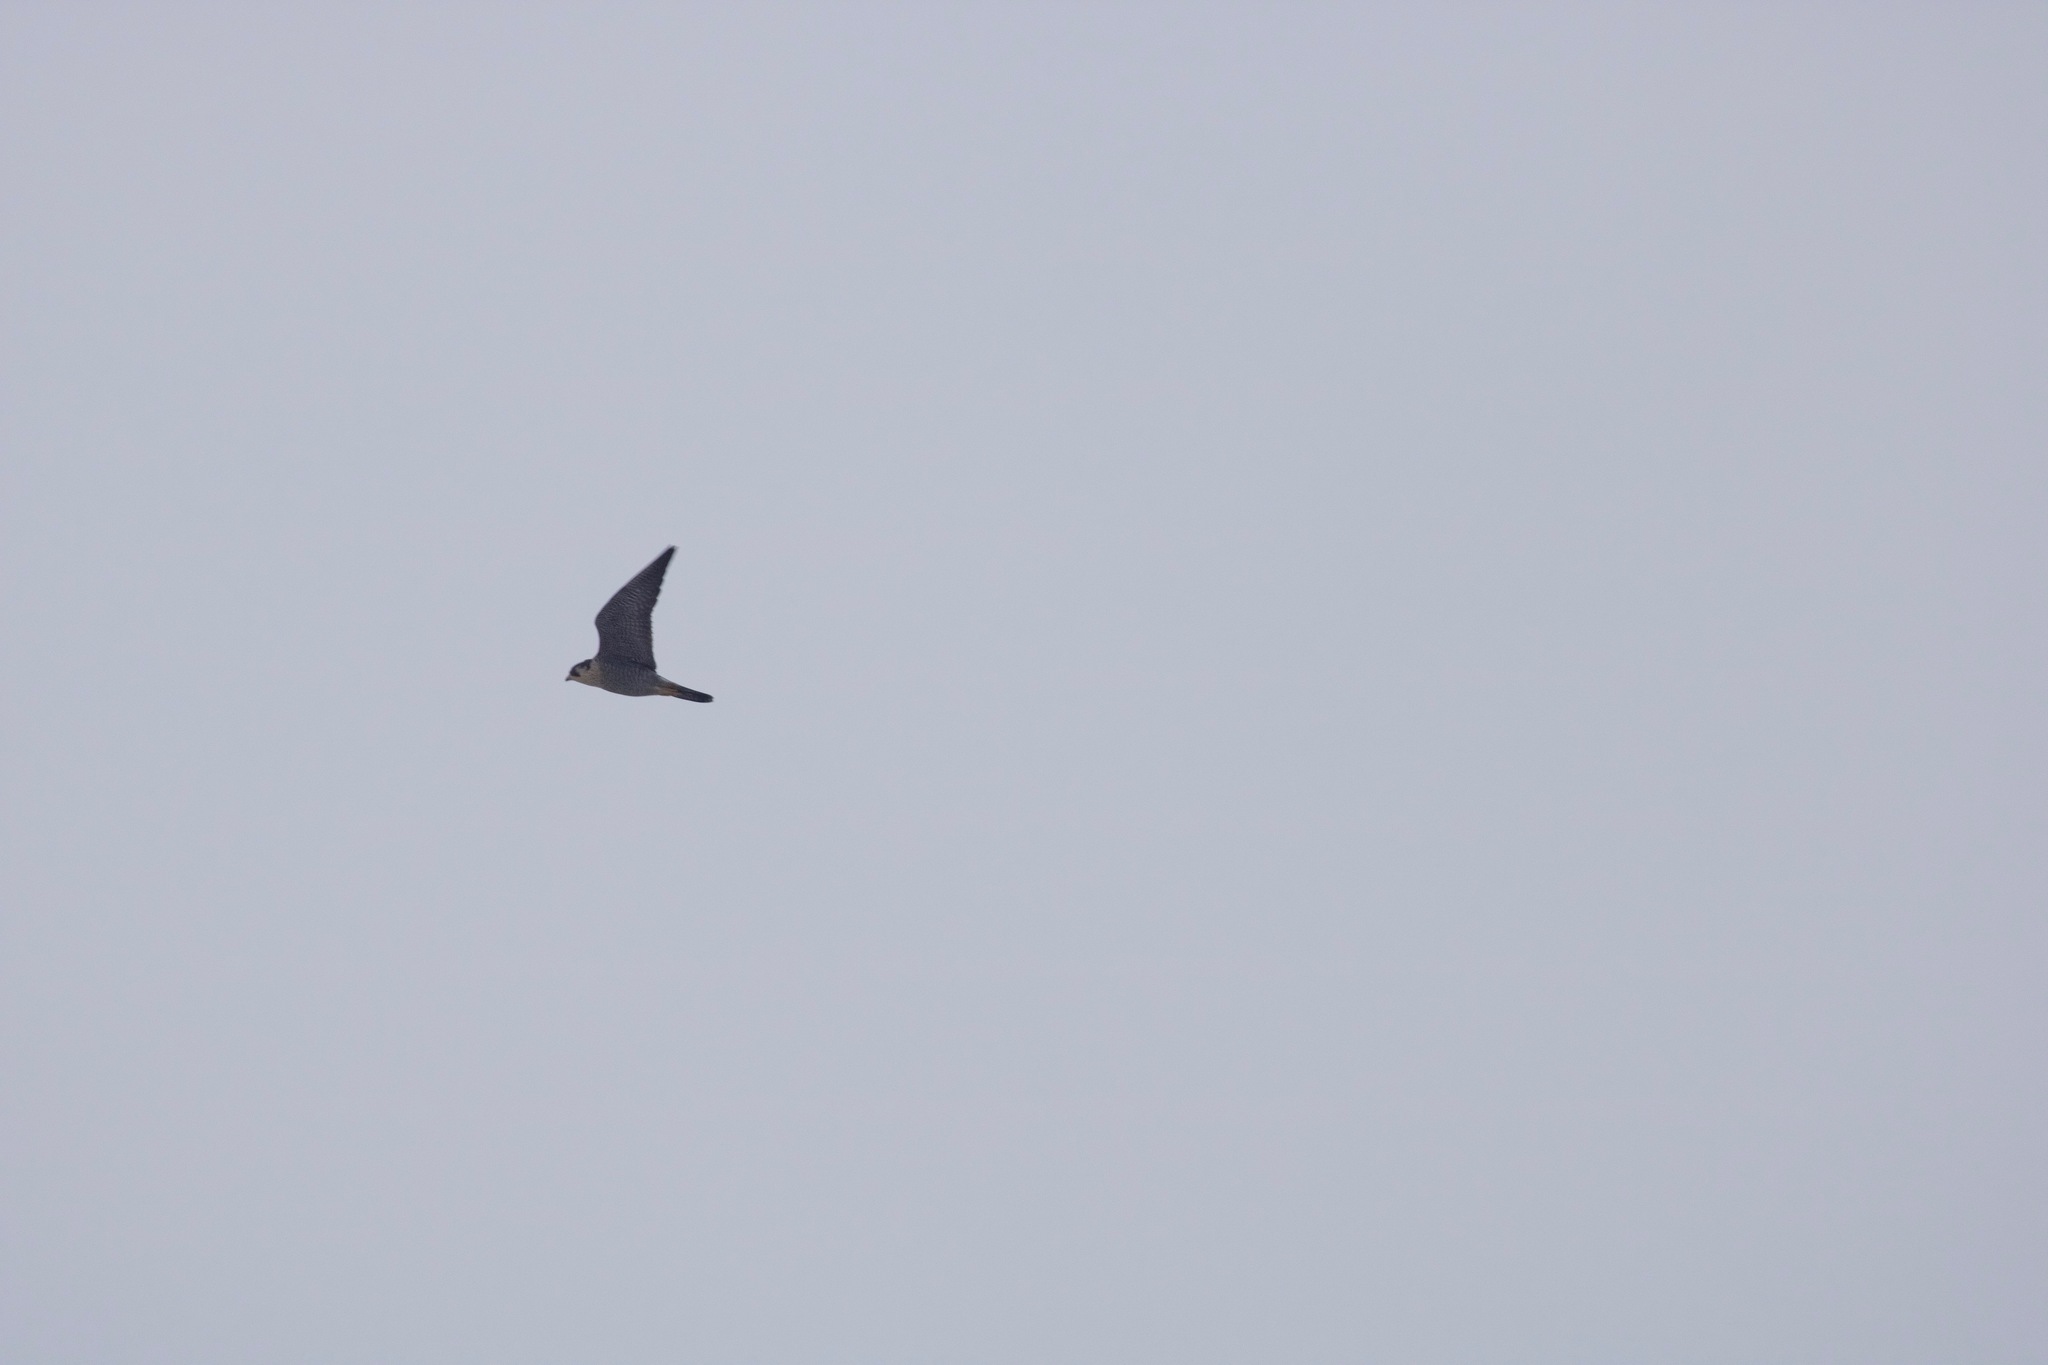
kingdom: Animalia
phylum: Chordata
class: Aves
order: Falconiformes
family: Falconidae
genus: Falco
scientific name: Falco peregrinus
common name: Peregrine falcon
